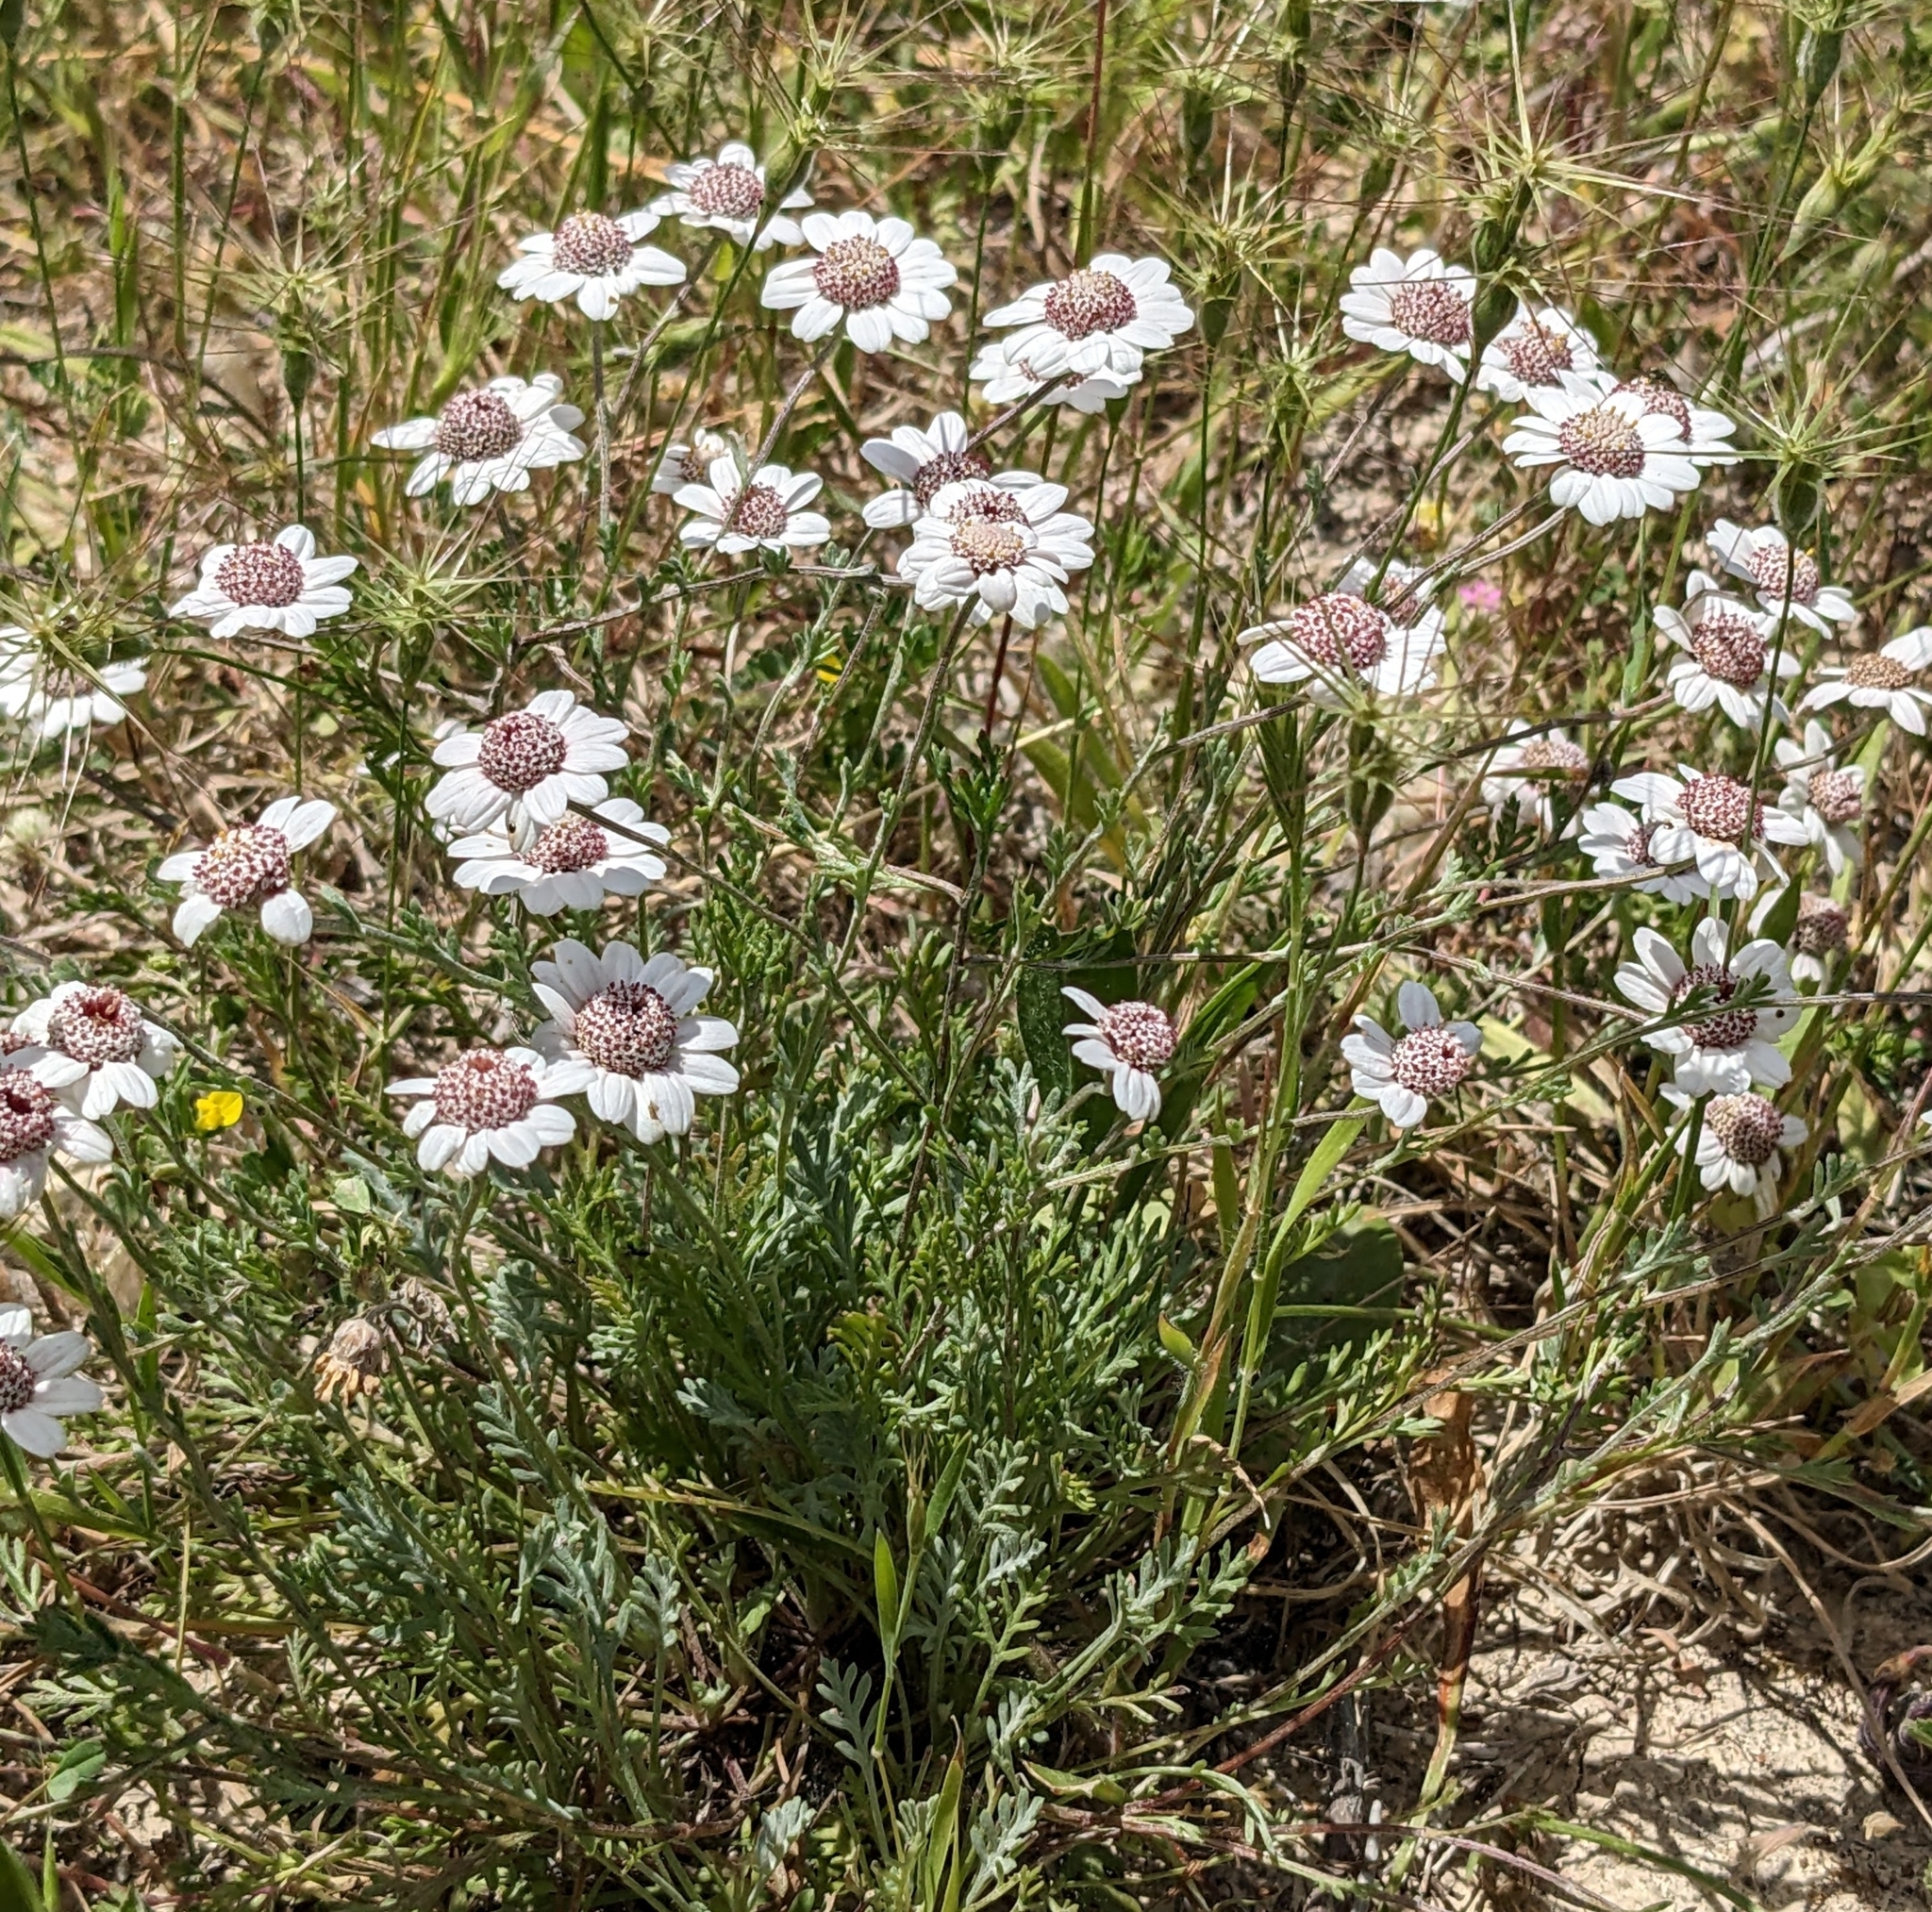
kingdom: Plantae
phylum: Tracheophyta
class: Magnoliopsida
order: Asterales
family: Asteraceae
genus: Anthemis
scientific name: Anthemis tricolor
